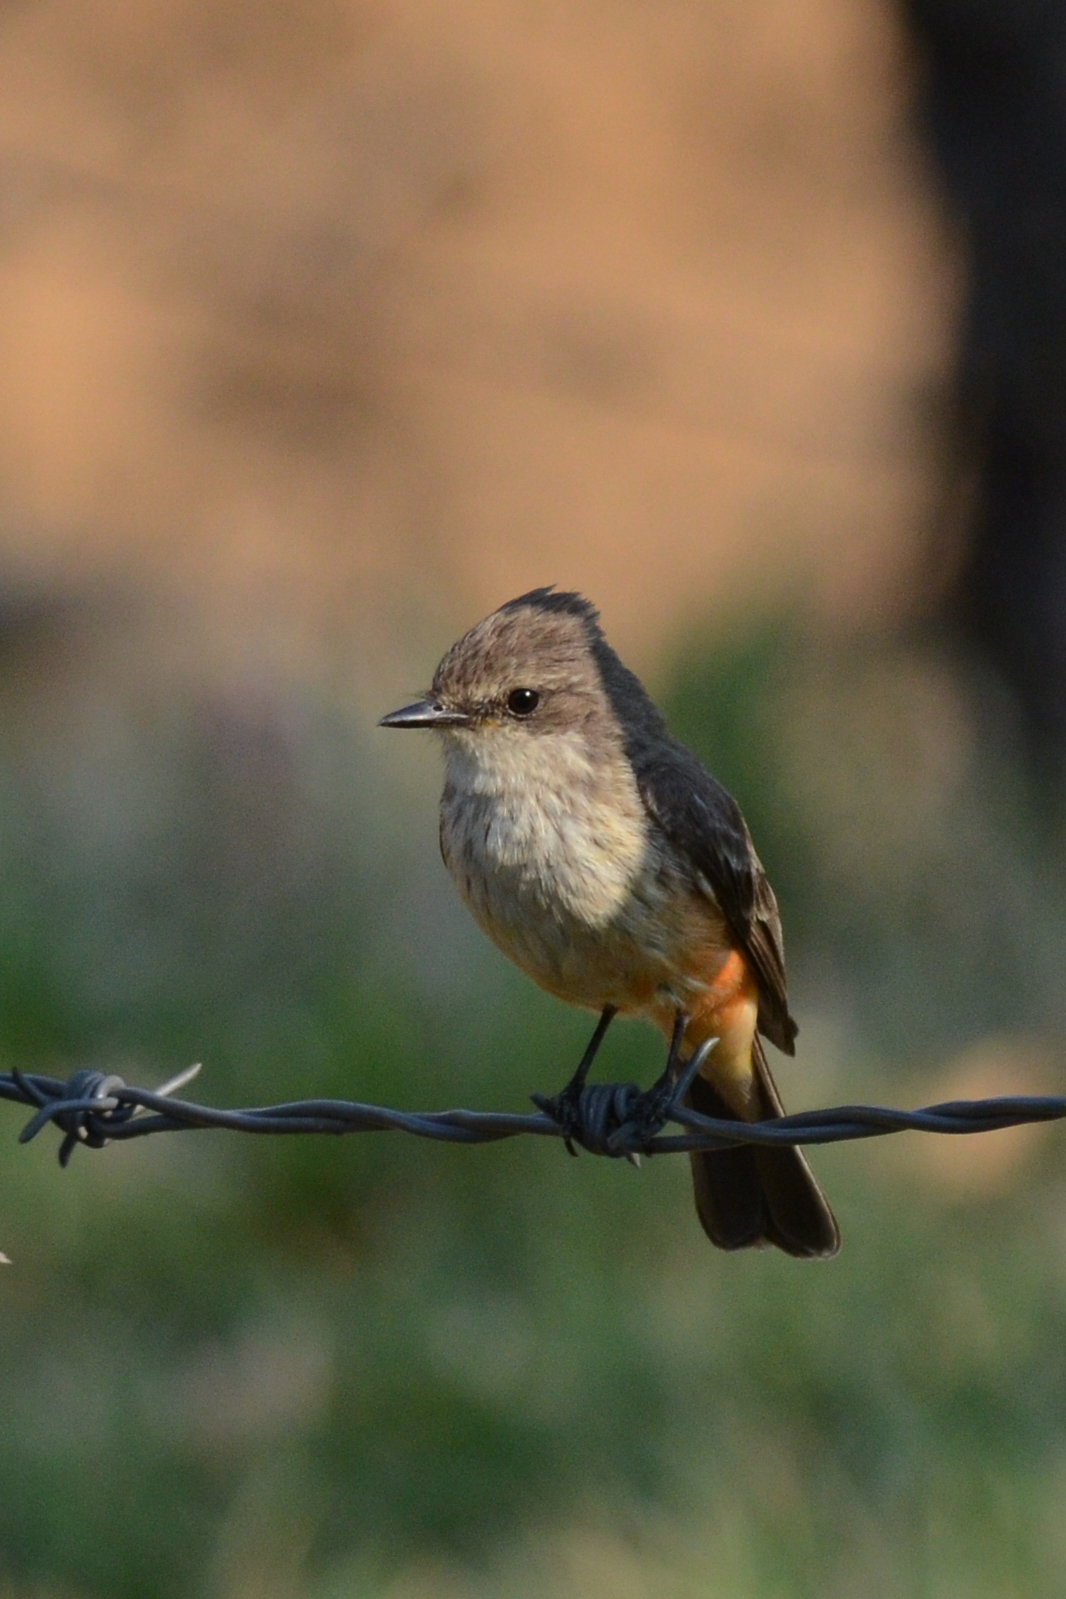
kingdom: Animalia
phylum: Chordata
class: Aves
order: Passeriformes
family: Tyrannidae
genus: Pyrocephalus
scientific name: Pyrocephalus rubinus
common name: Vermilion flycatcher
